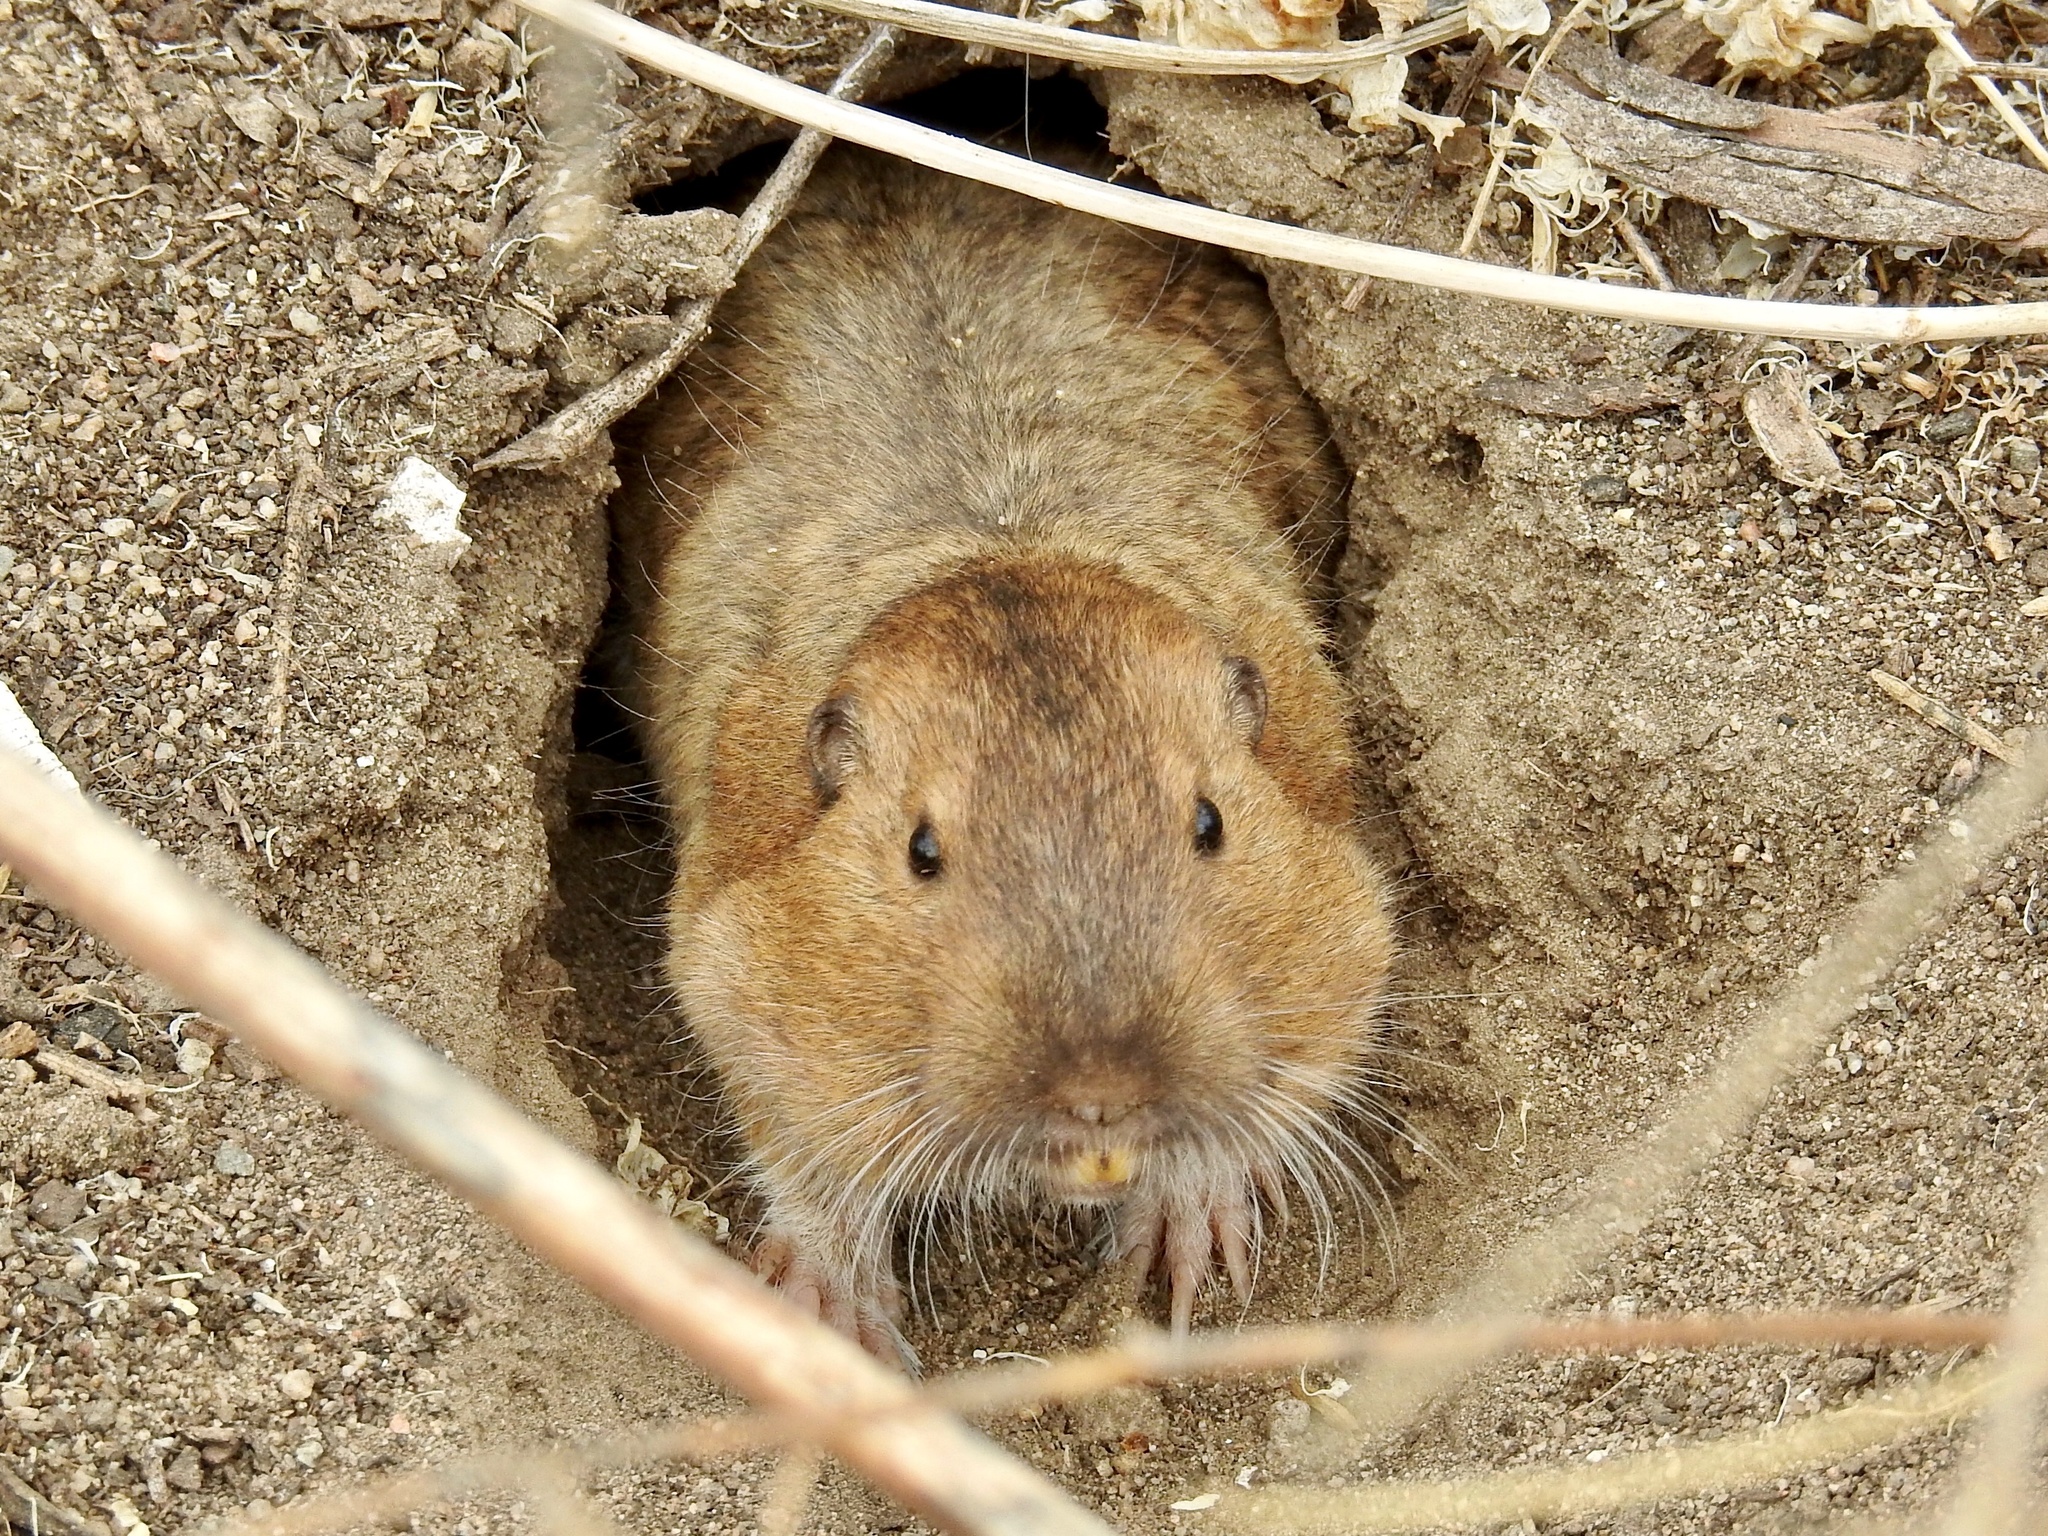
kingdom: Animalia
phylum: Chordata
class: Mammalia
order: Rodentia
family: Geomyidae
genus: Thomomys
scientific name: Thomomys bottae
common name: Botta's pocket gopher
